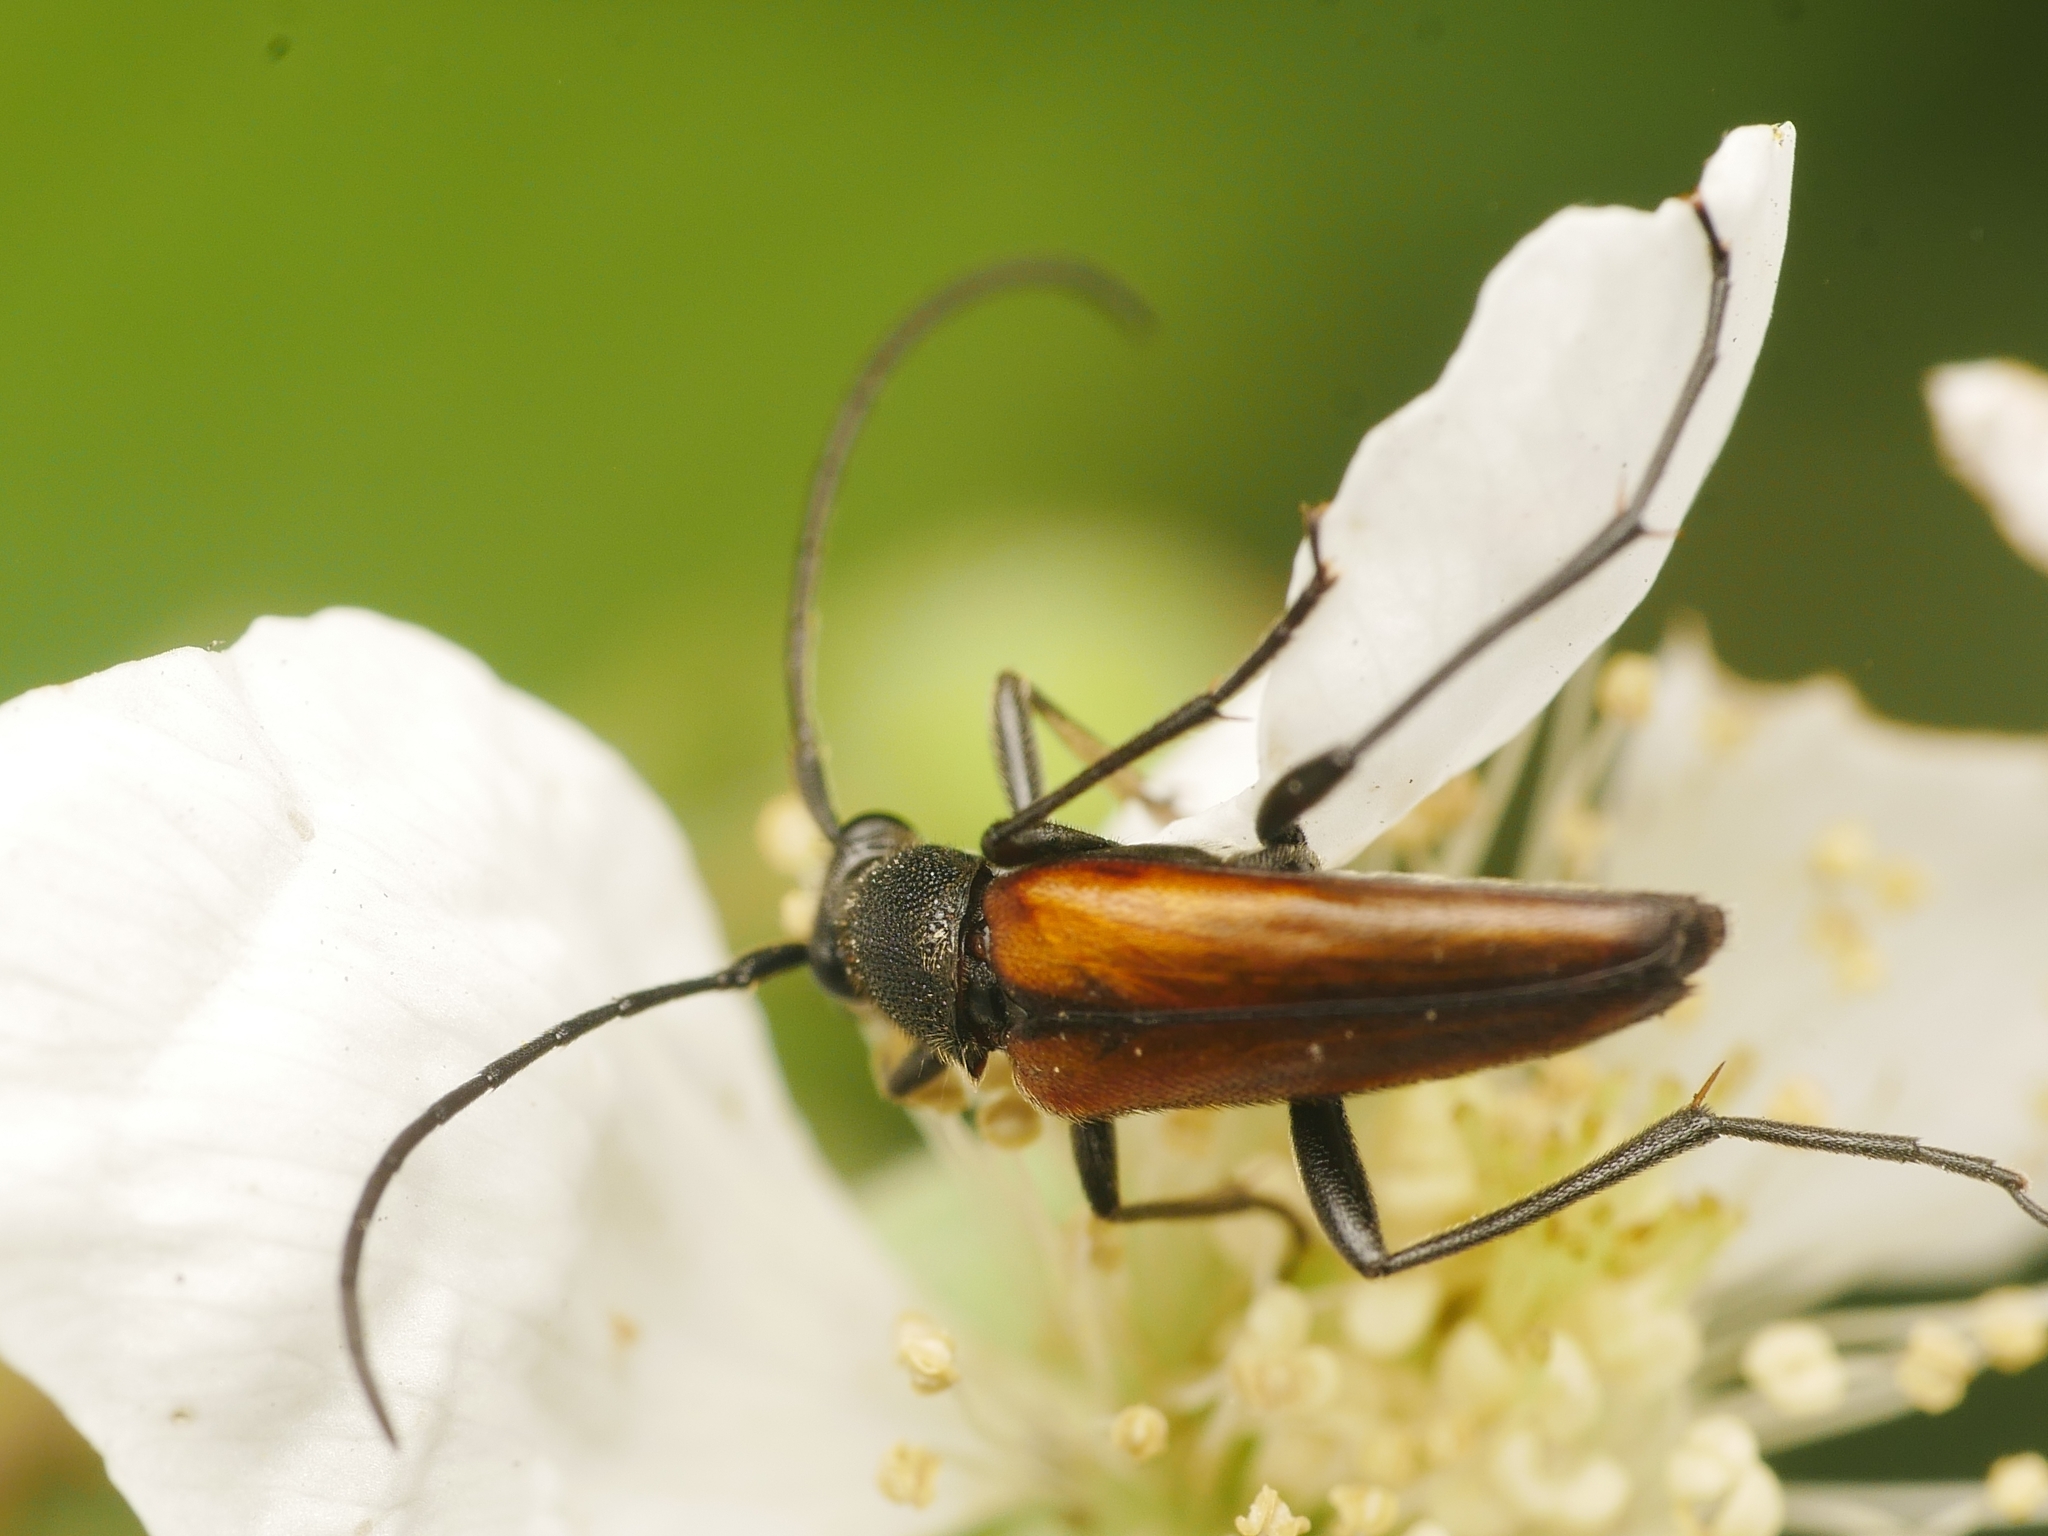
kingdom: Animalia
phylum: Arthropoda
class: Insecta
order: Coleoptera
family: Cerambycidae
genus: Stenurella
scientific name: Stenurella melanura
